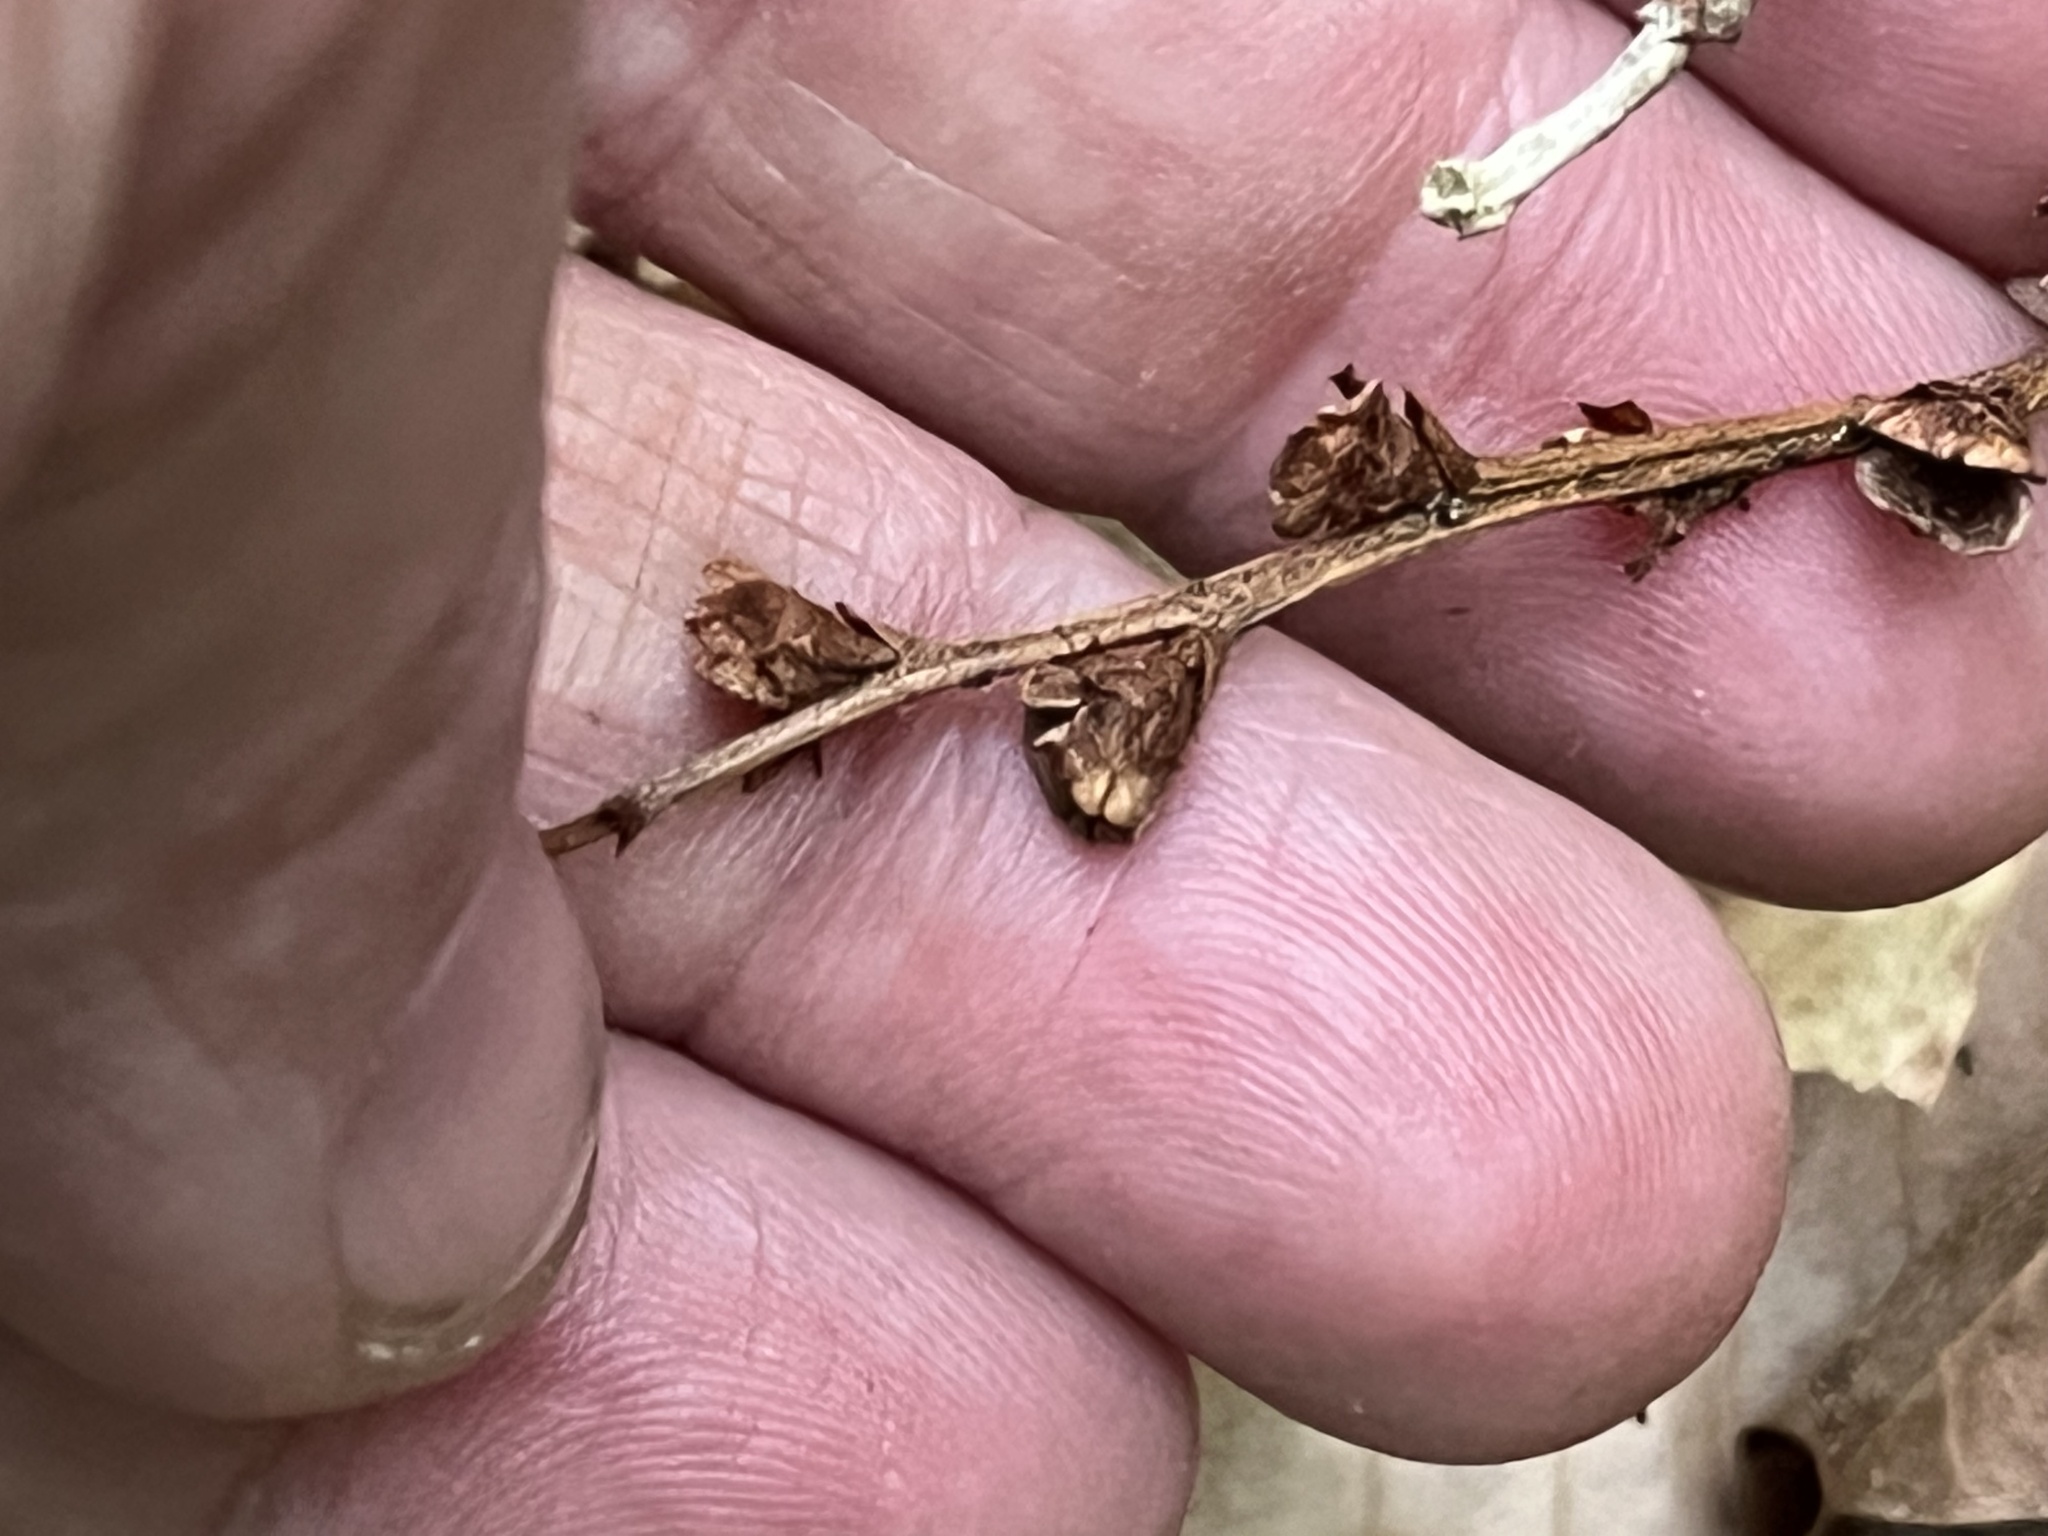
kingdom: Plantae
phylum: Tracheophyta
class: Magnoliopsida
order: Lamiales
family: Orobanchaceae
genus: Epifagus
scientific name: Epifagus virginiana
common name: Beechdrops
